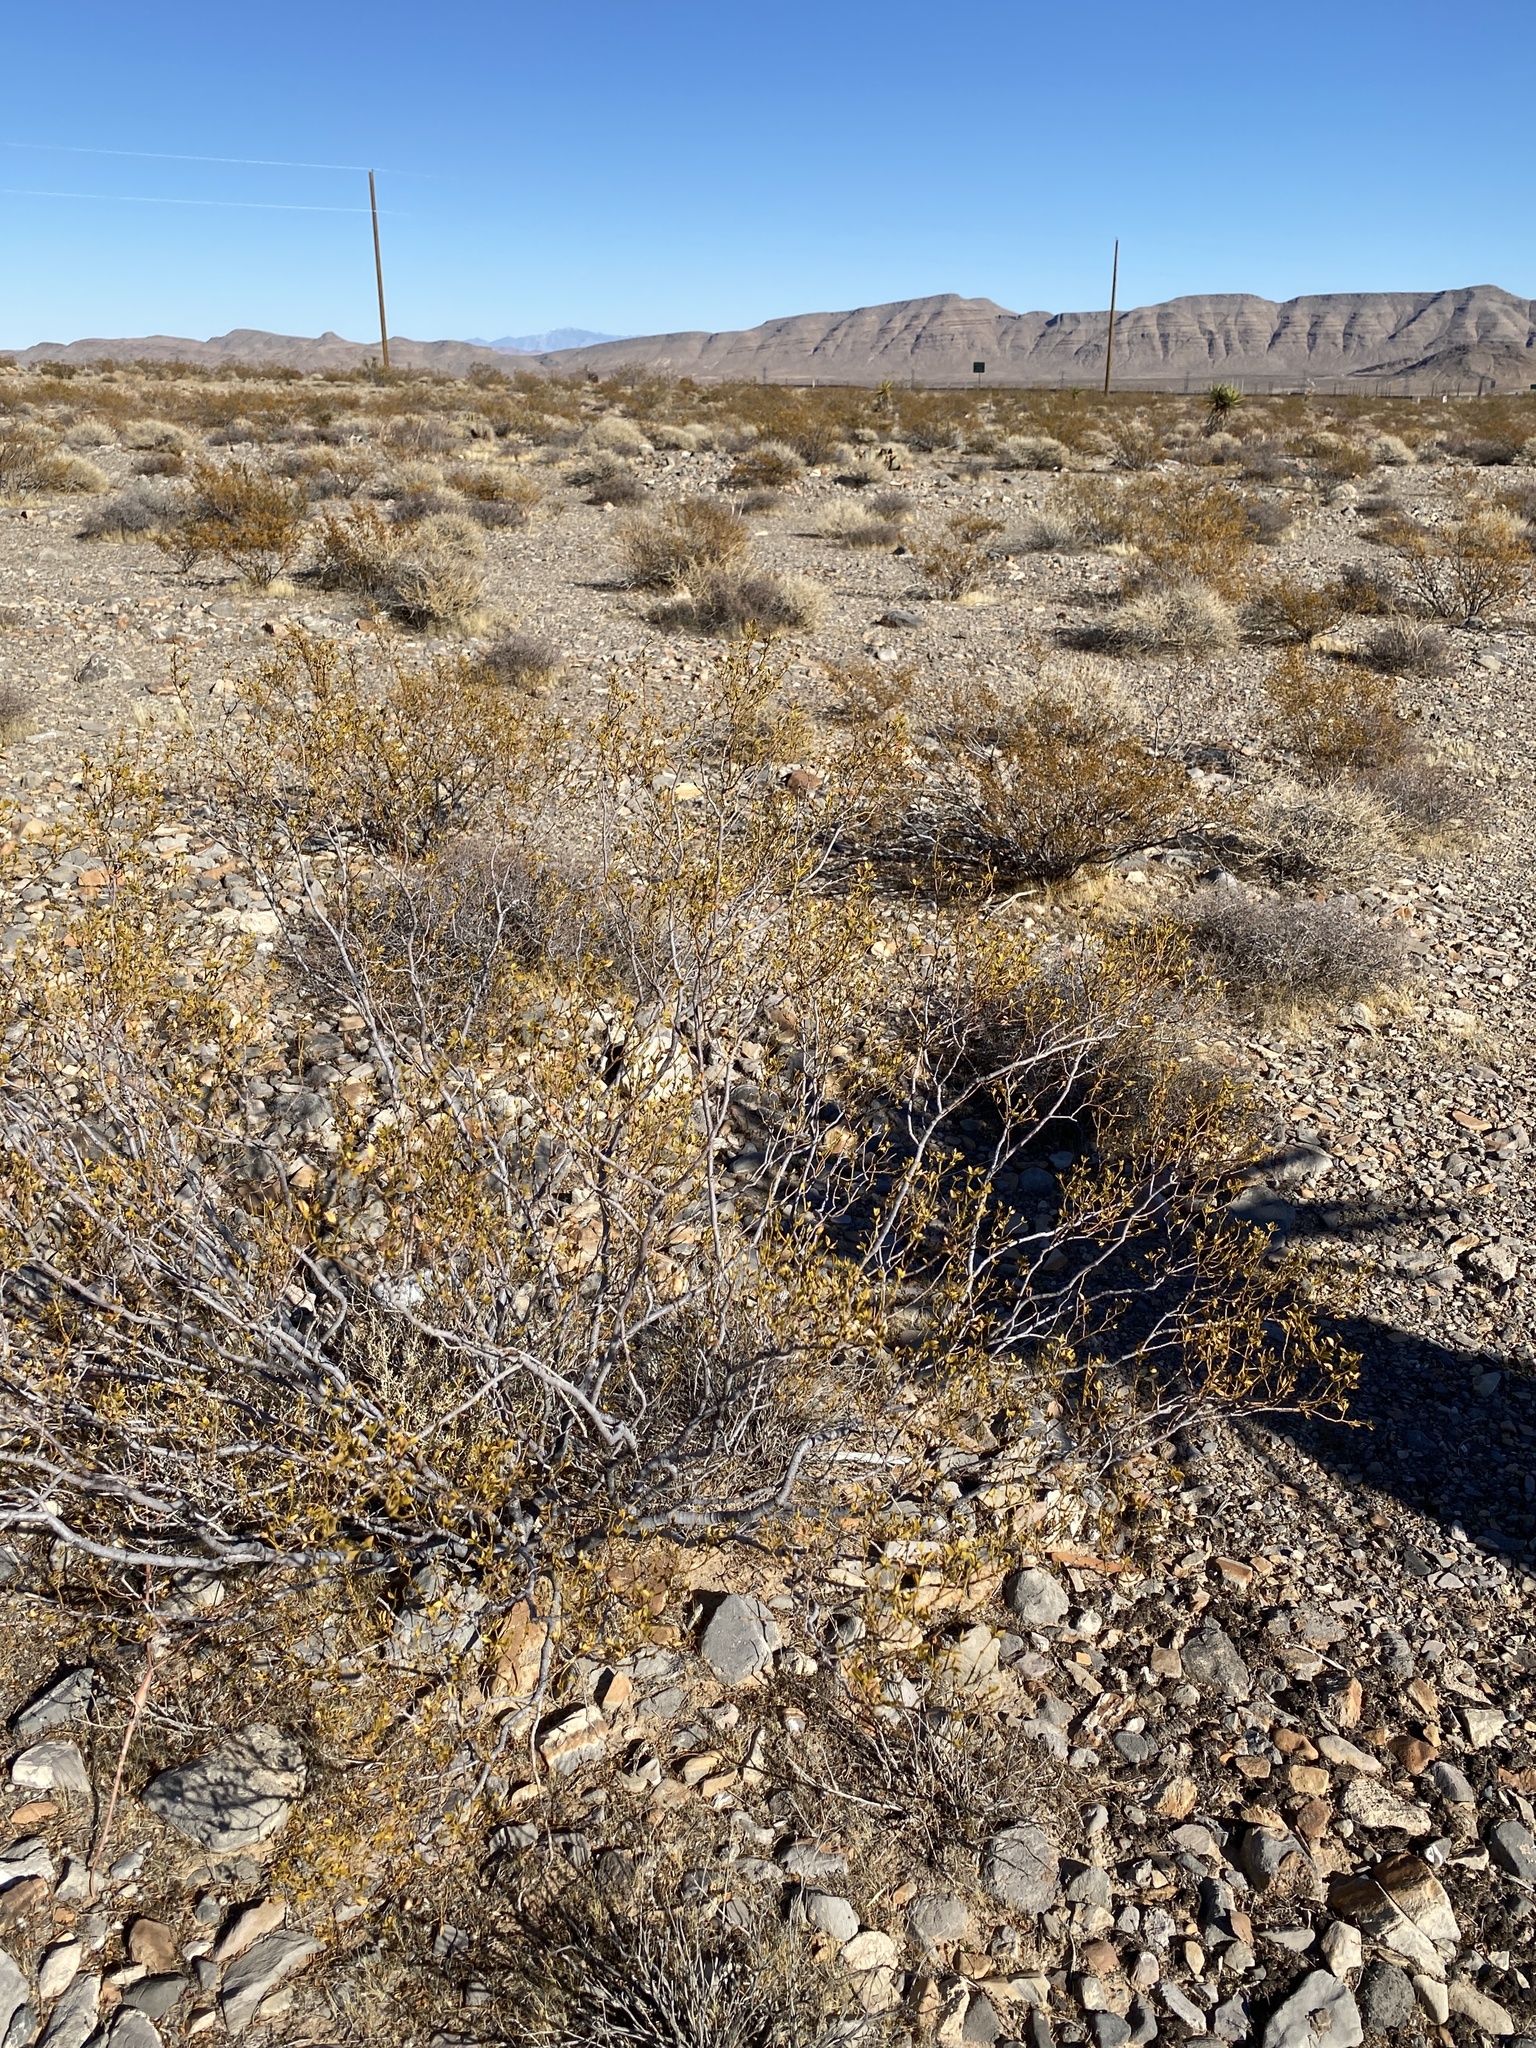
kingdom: Plantae
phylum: Tracheophyta
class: Magnoliopsida
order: Zygophyllales
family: Zygophyllaceae
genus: Larrea
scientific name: Larrea tridentata
